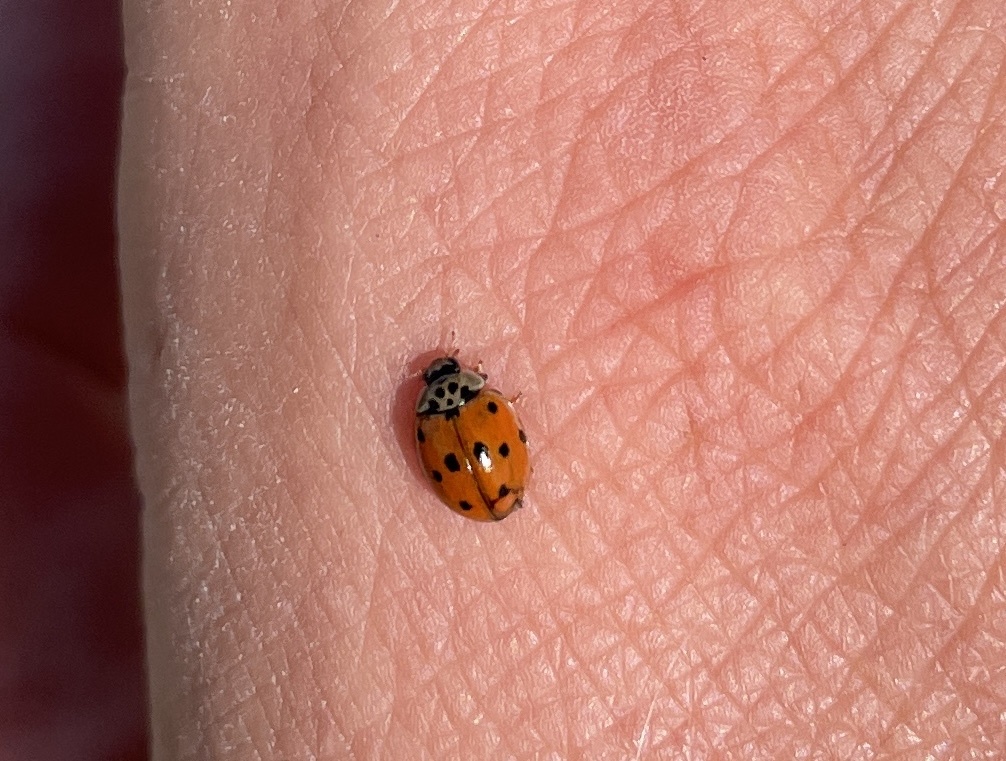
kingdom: Animalia
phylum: Arthropoda
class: Insecta
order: Coleoptera
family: Coccinellidae
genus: Adalia
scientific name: Adalia decempunctata
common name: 10-spot ladybird
